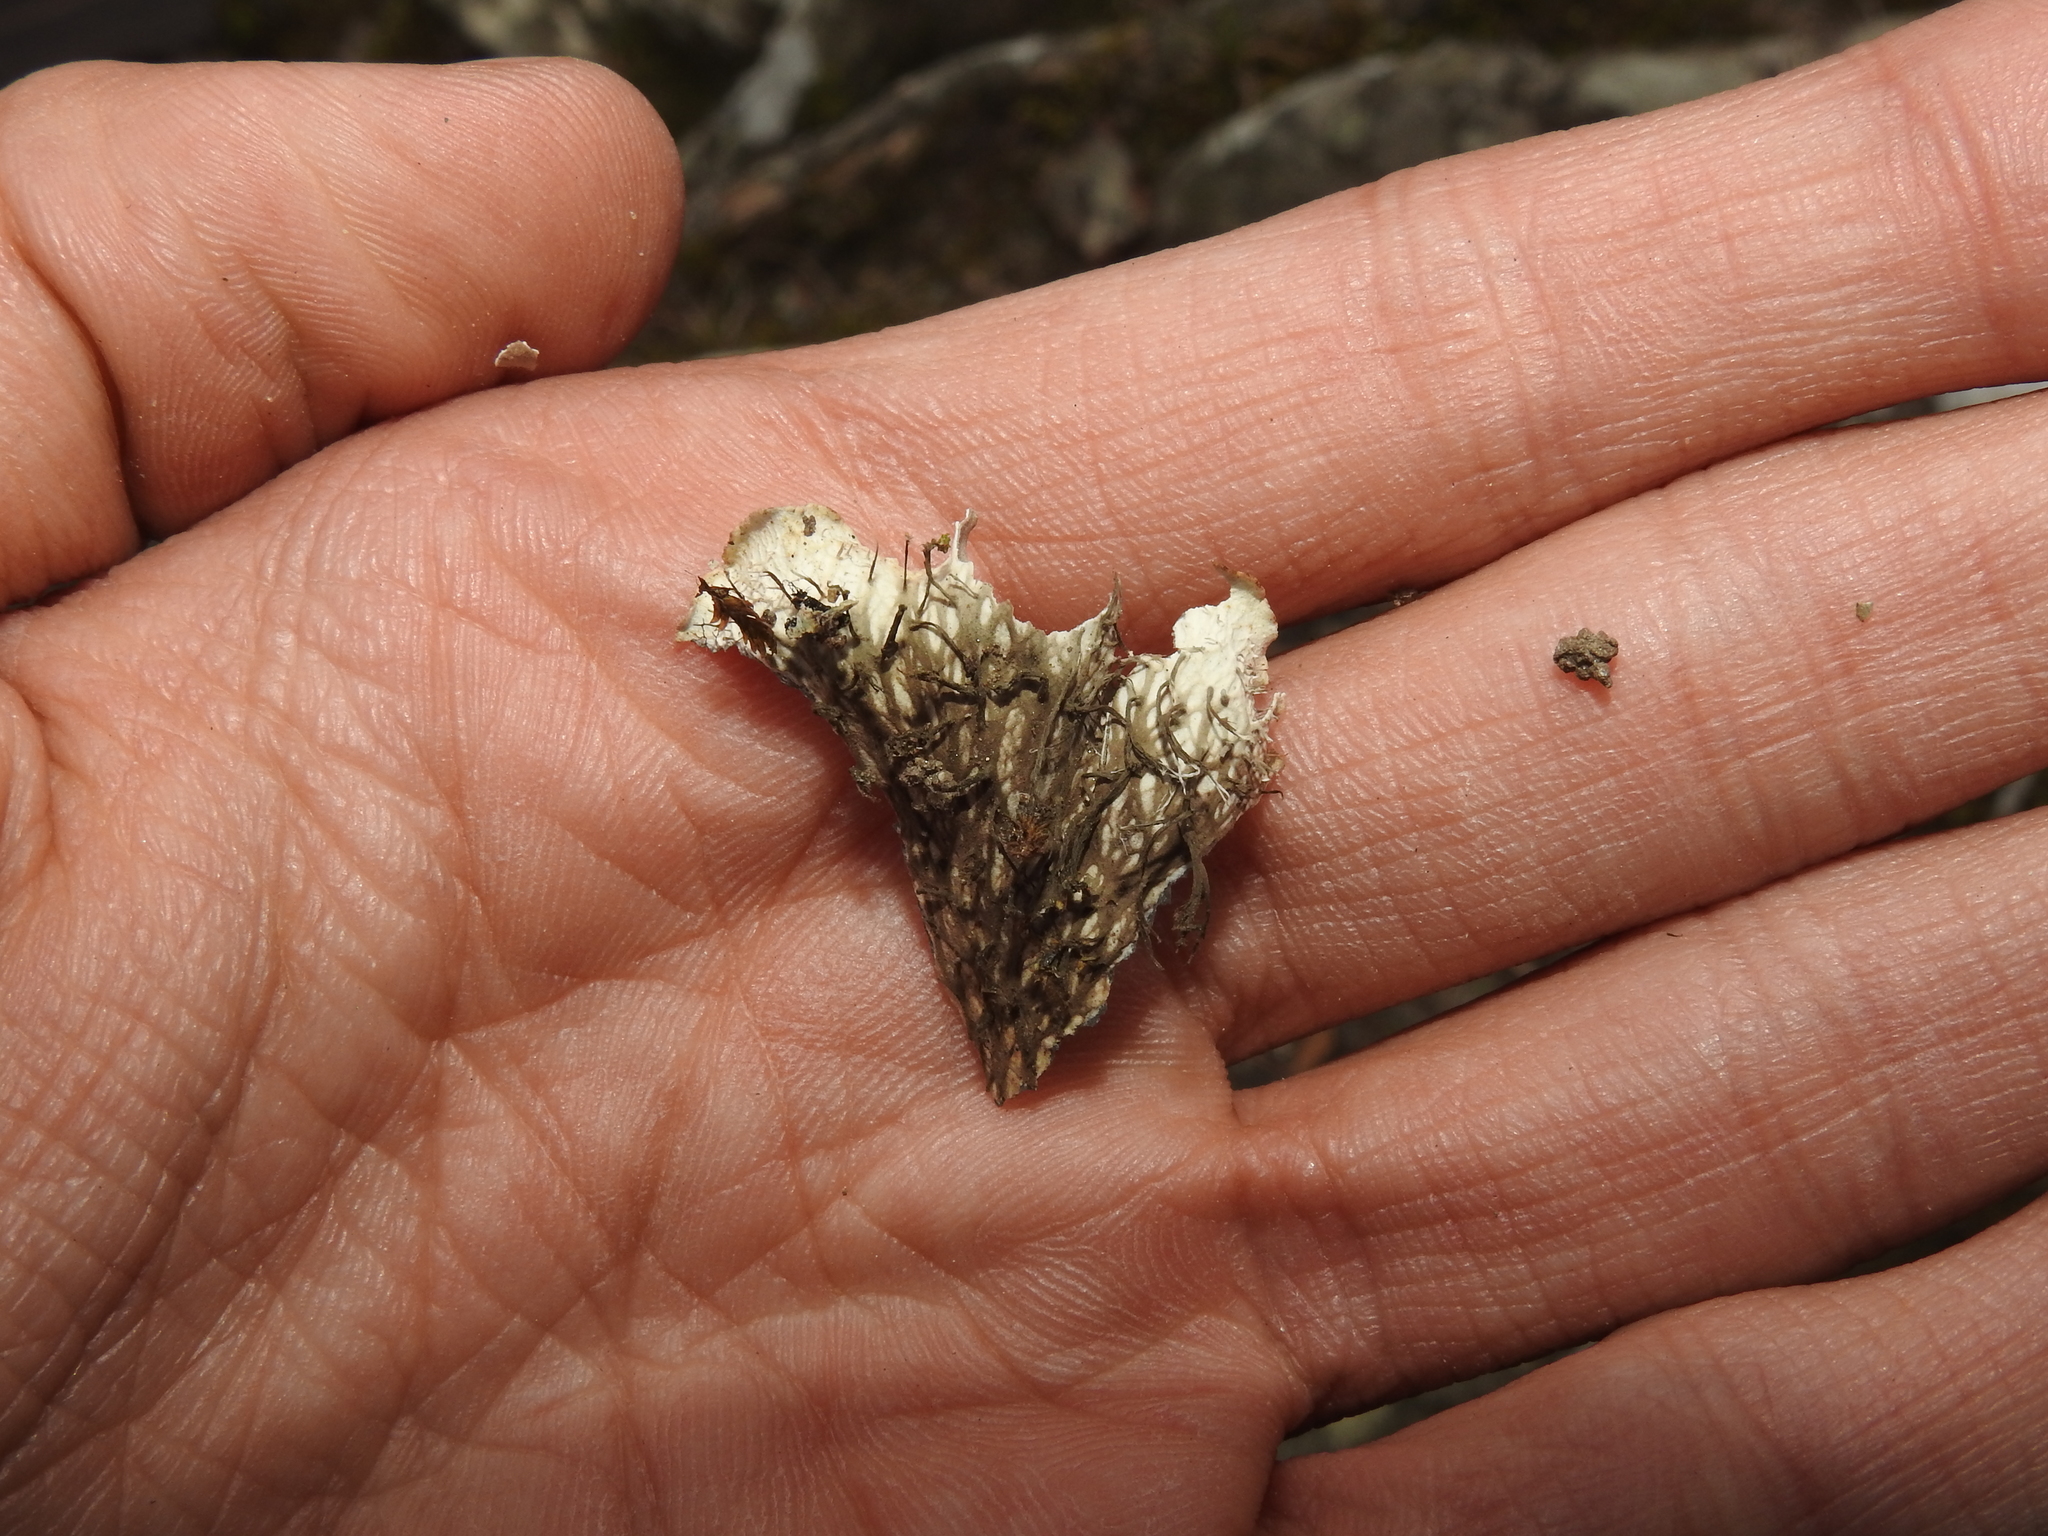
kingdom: Fungi
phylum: Ascomycota
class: Lecanoromycetes
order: Peltigerales
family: Peltigeraceae
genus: Peltigera
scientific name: Peltigera leucophlebia
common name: Ruffled freckle pelt lichen
